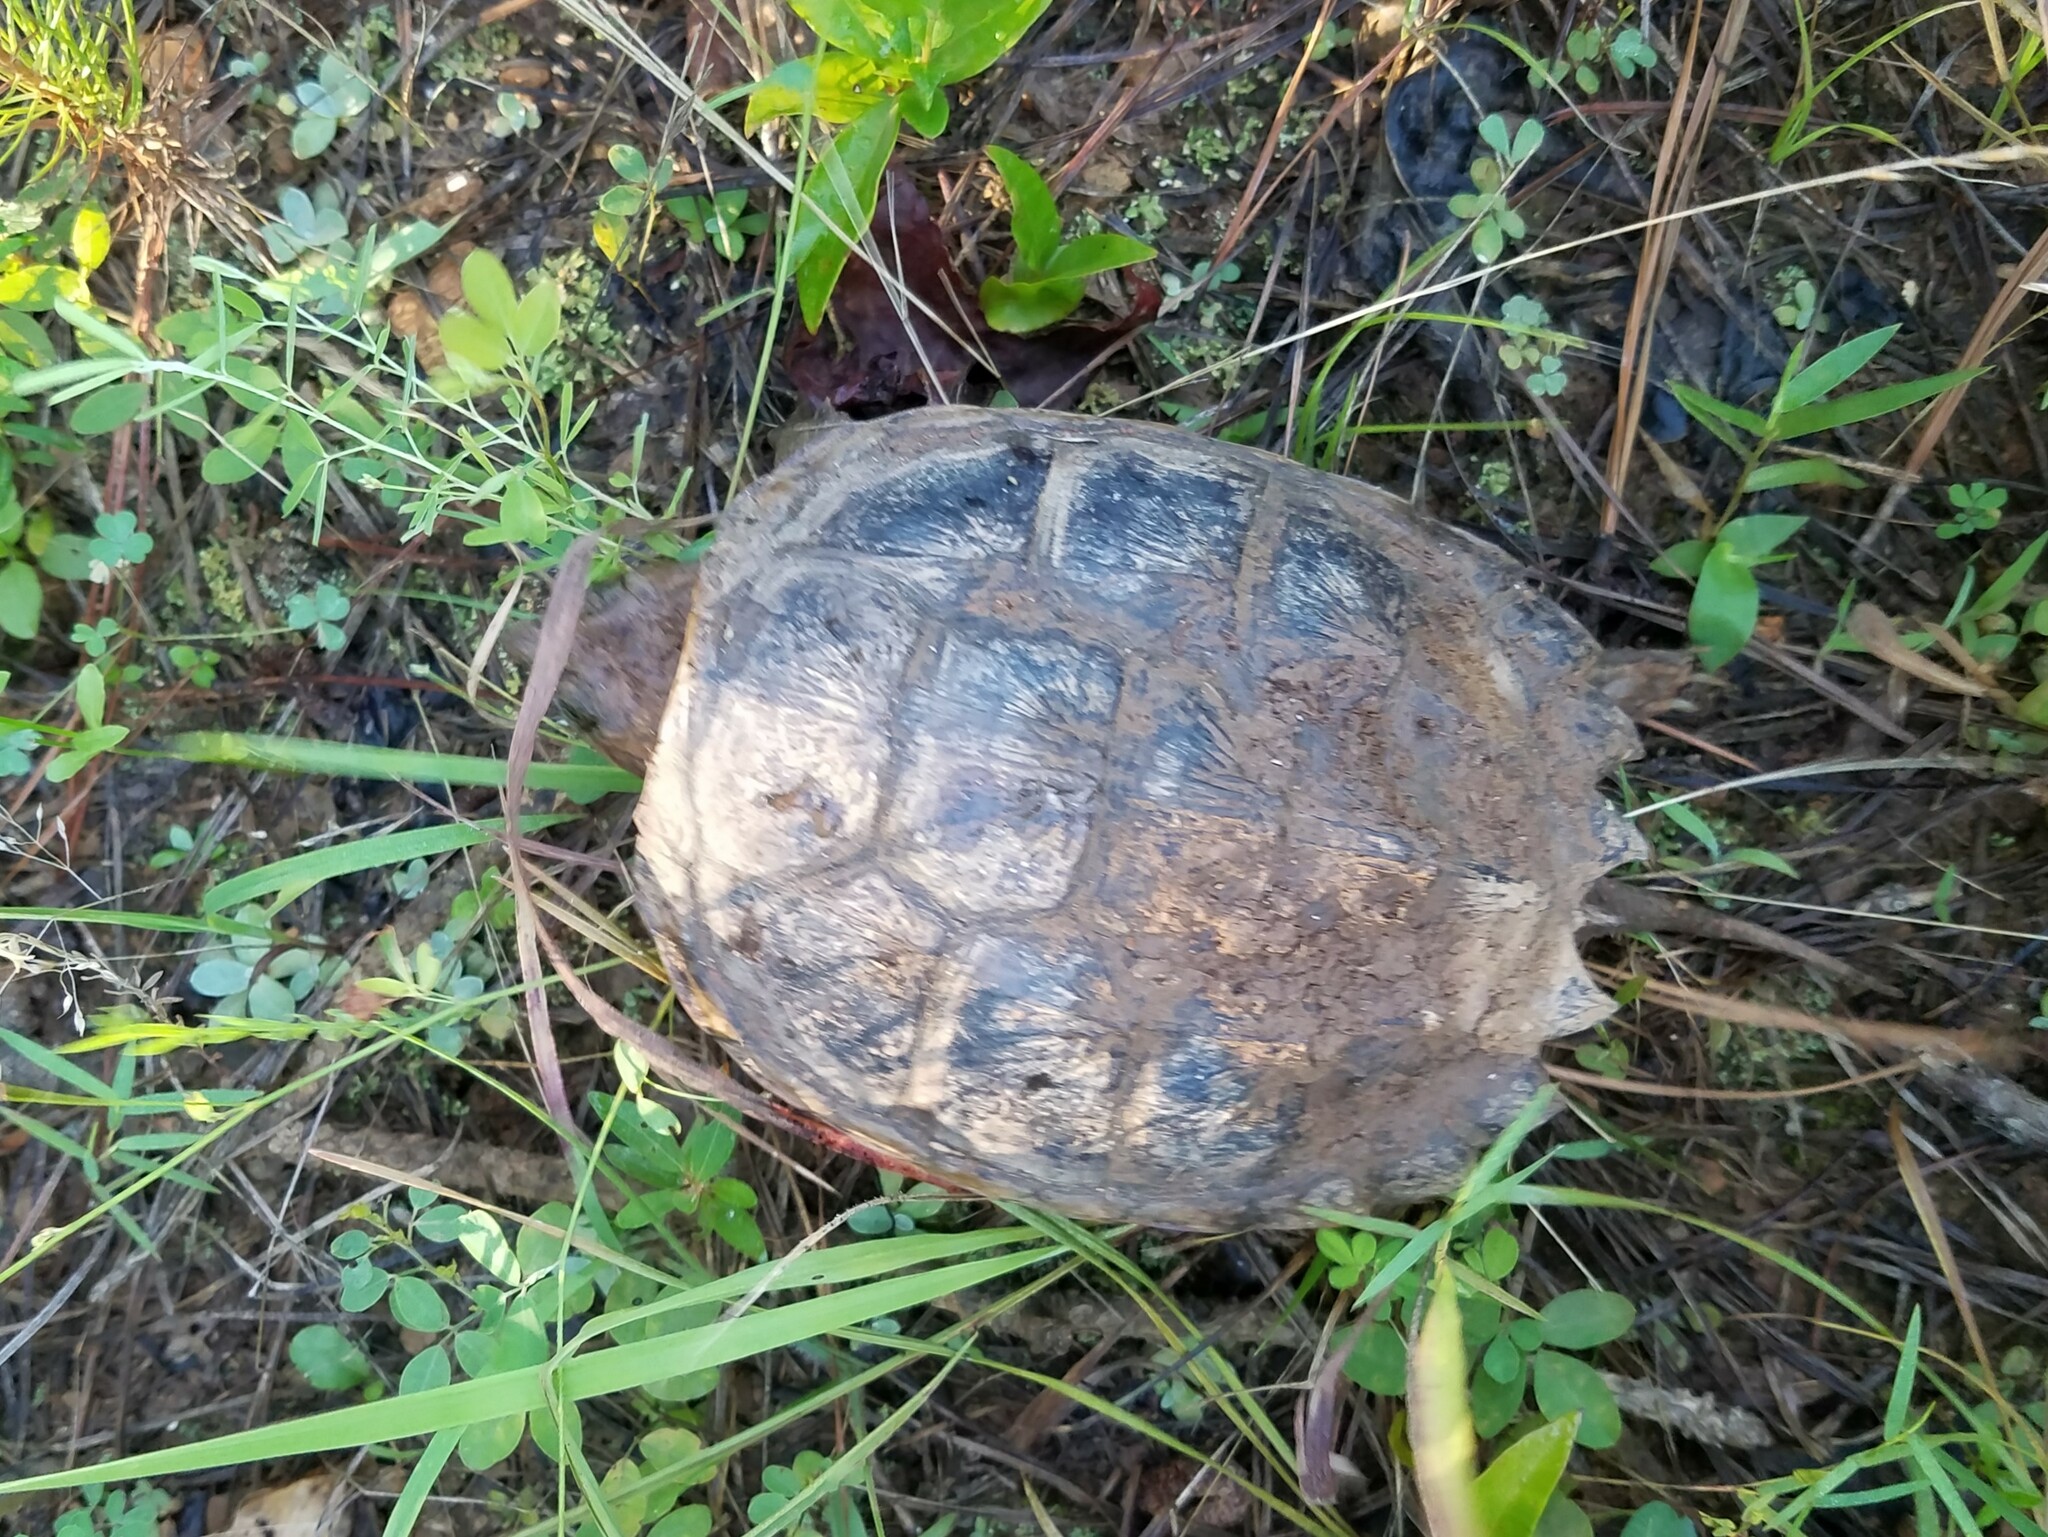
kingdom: Animalia
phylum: Chordata
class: Testudines
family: Chelydridae
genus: Chelydra
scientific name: Chelydra serpentina
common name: Common snapping turtle
